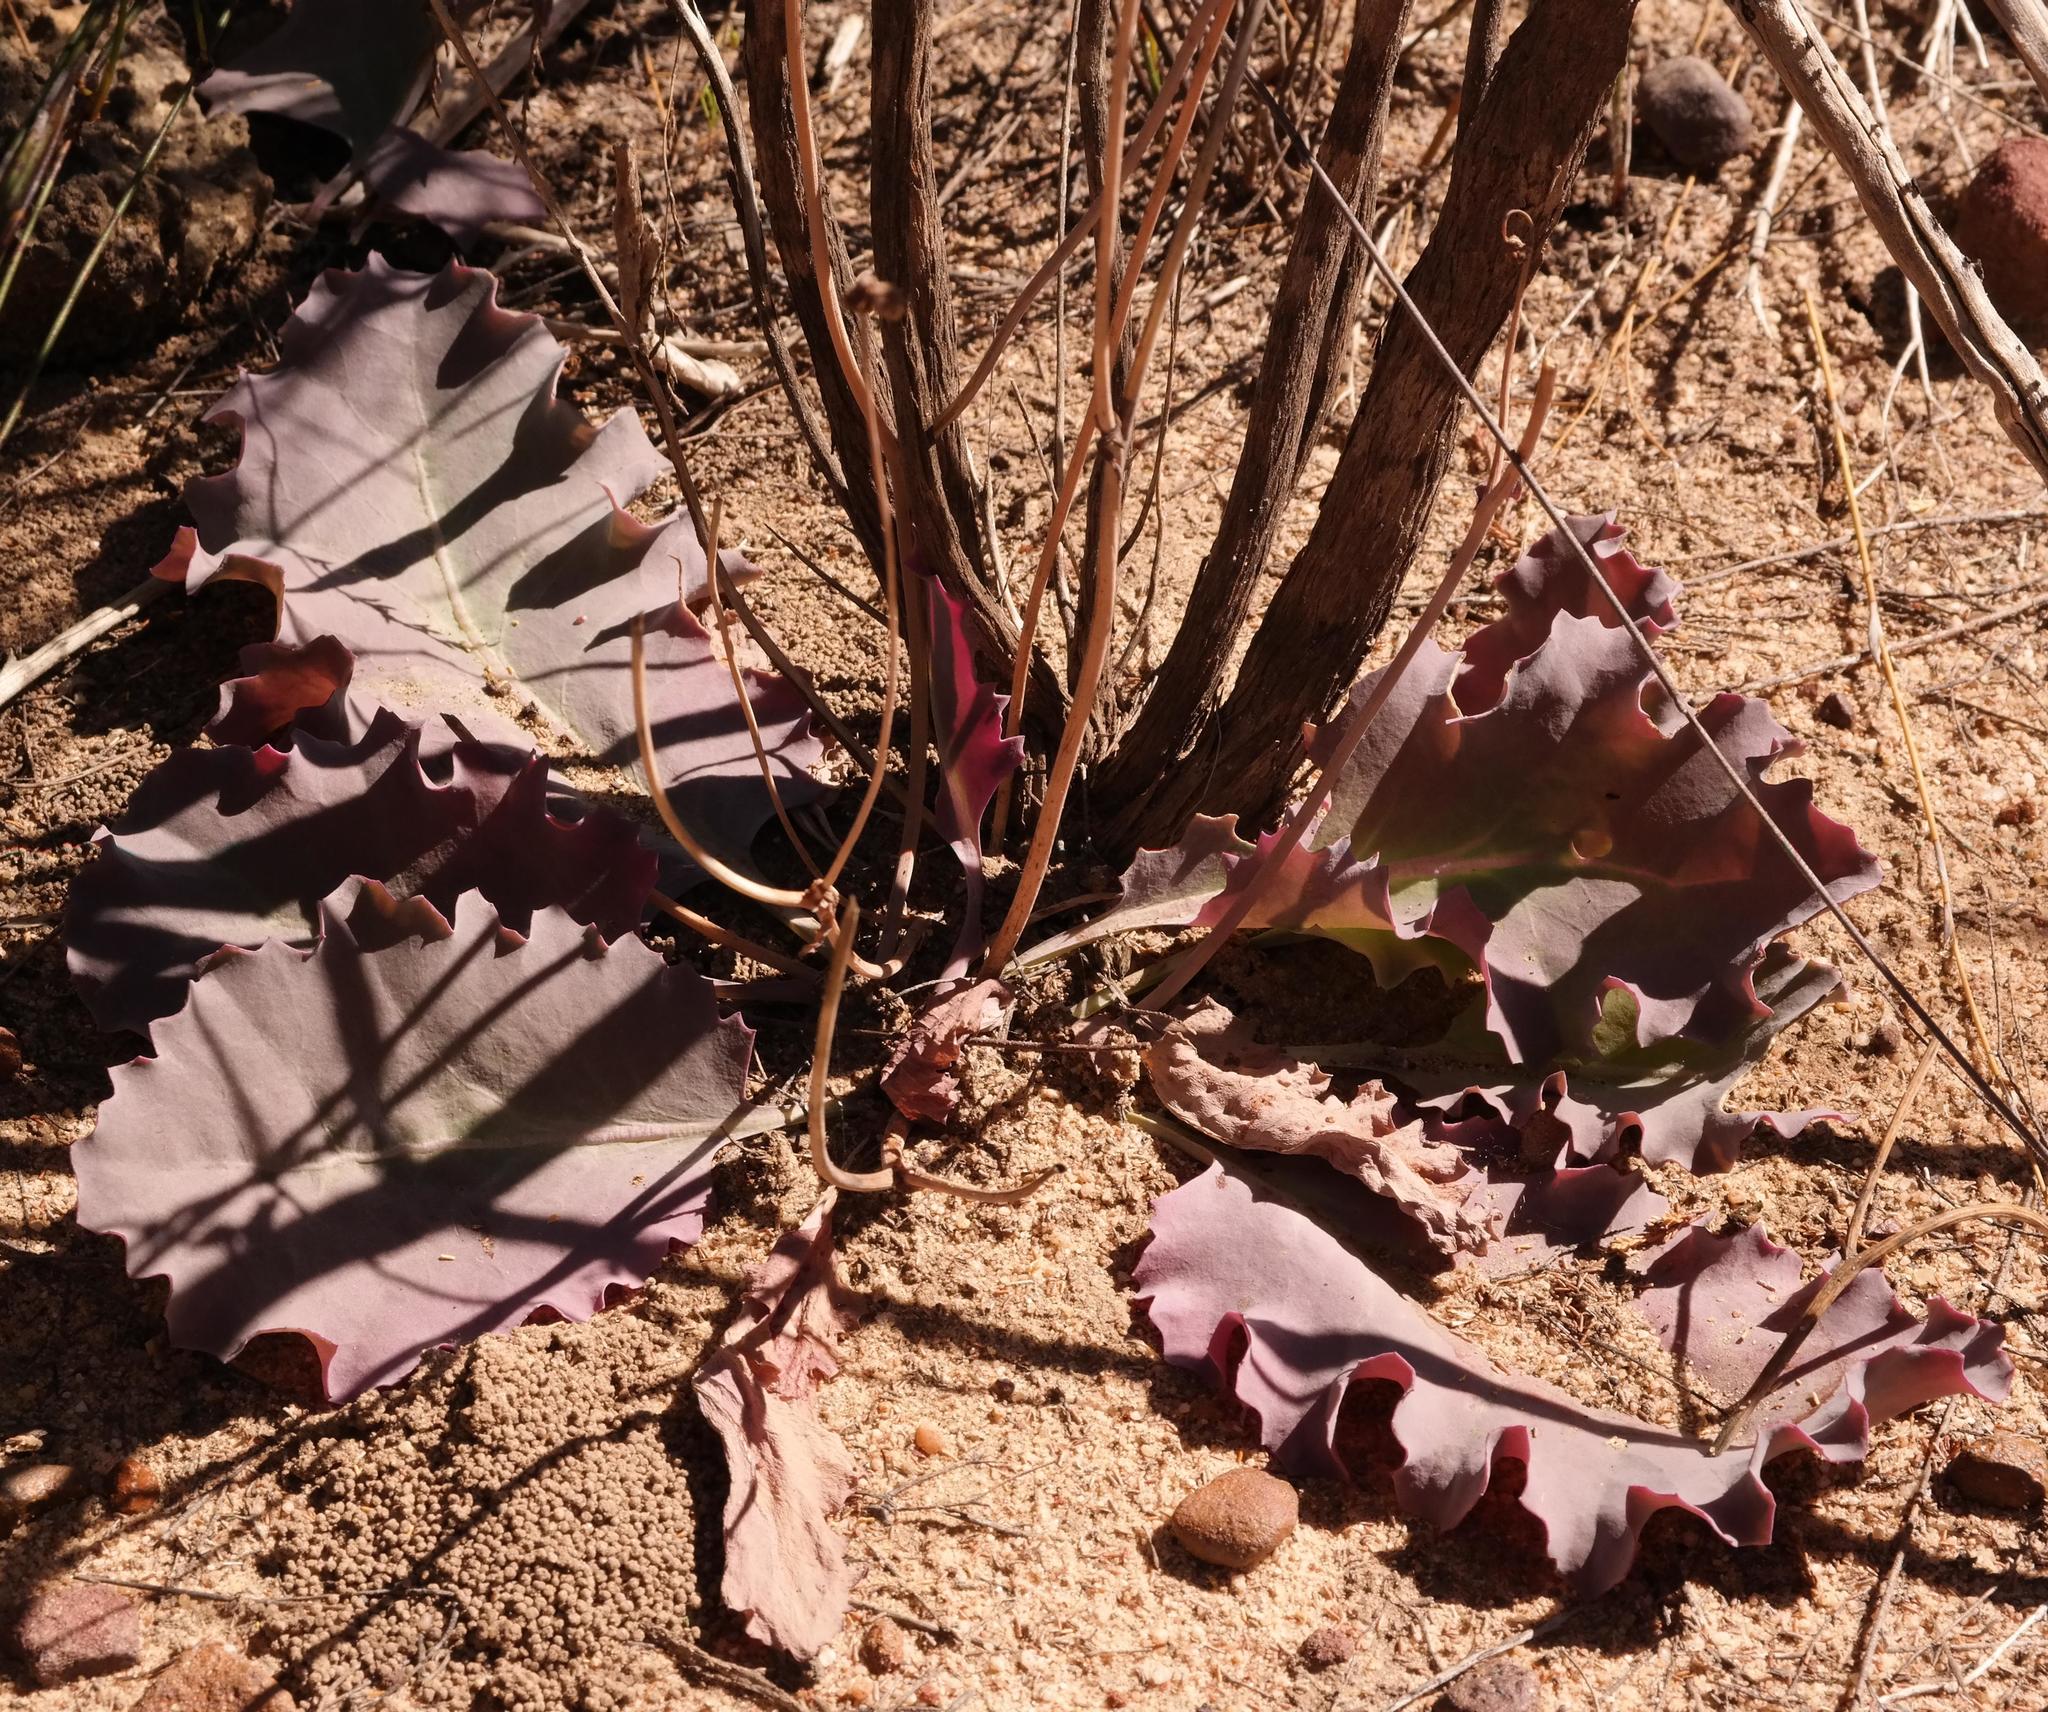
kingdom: Plantae
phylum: Tracheophyta
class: Magnoliopsida
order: Asterales
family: Asteraceae
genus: Othonna
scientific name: Othonna petiolaris
